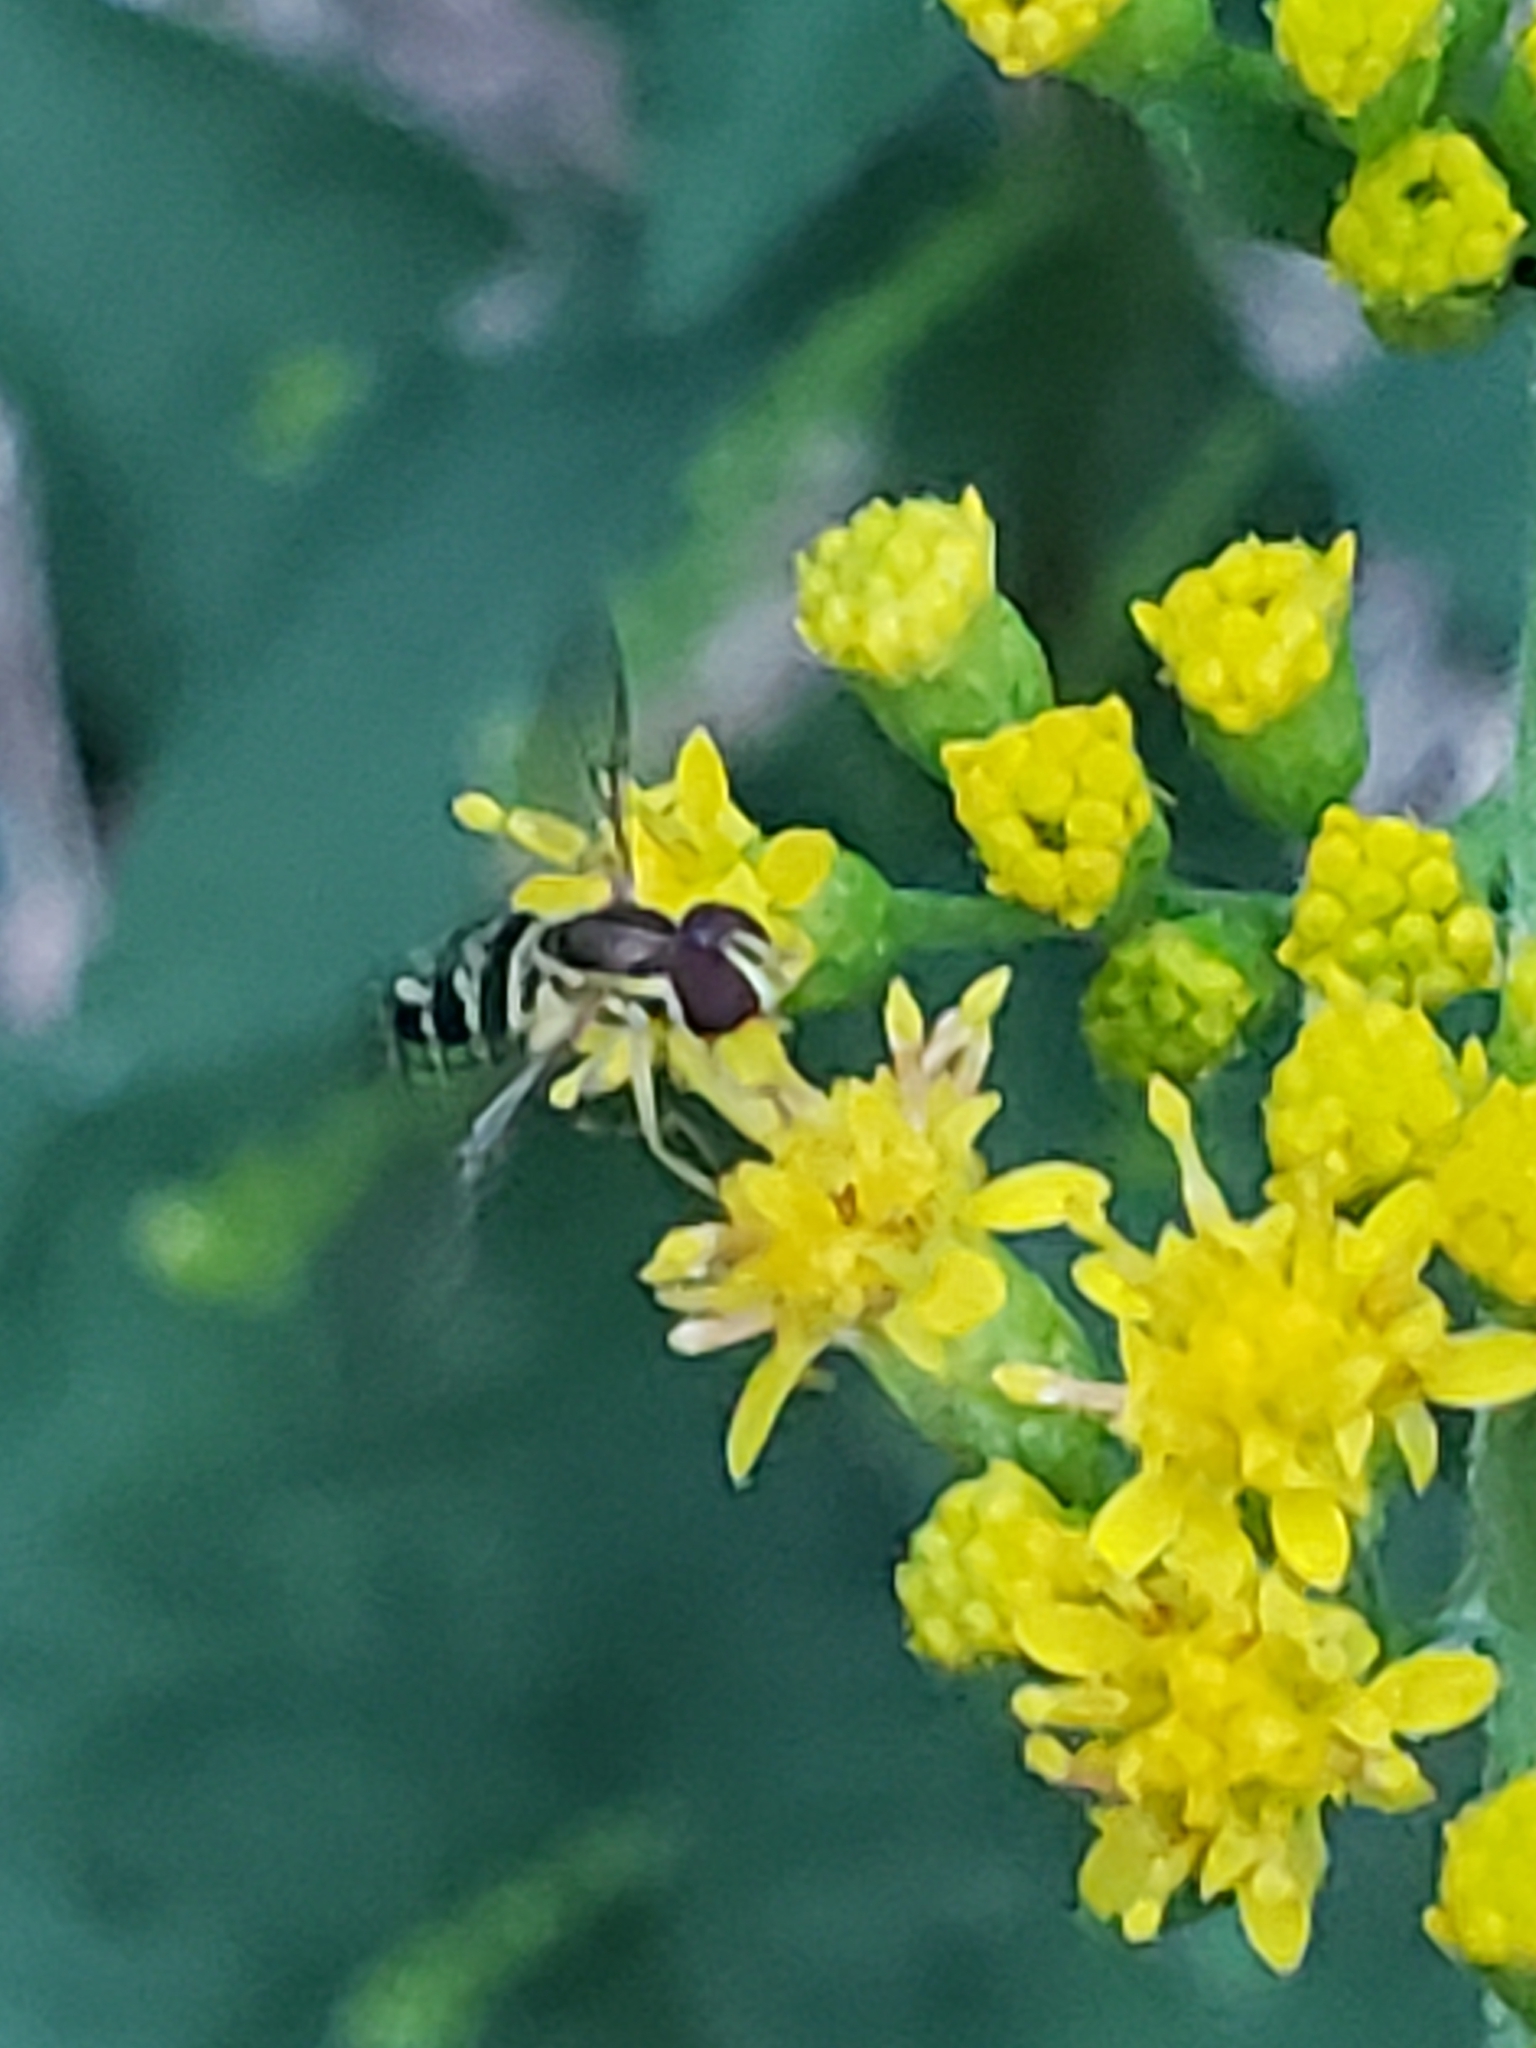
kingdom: Animalia
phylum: Arthropoda
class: Insecta
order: Diptera
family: Syrphidae
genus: Toxomerus
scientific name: Toxomerus geminatus
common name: Eastern calligrapher
